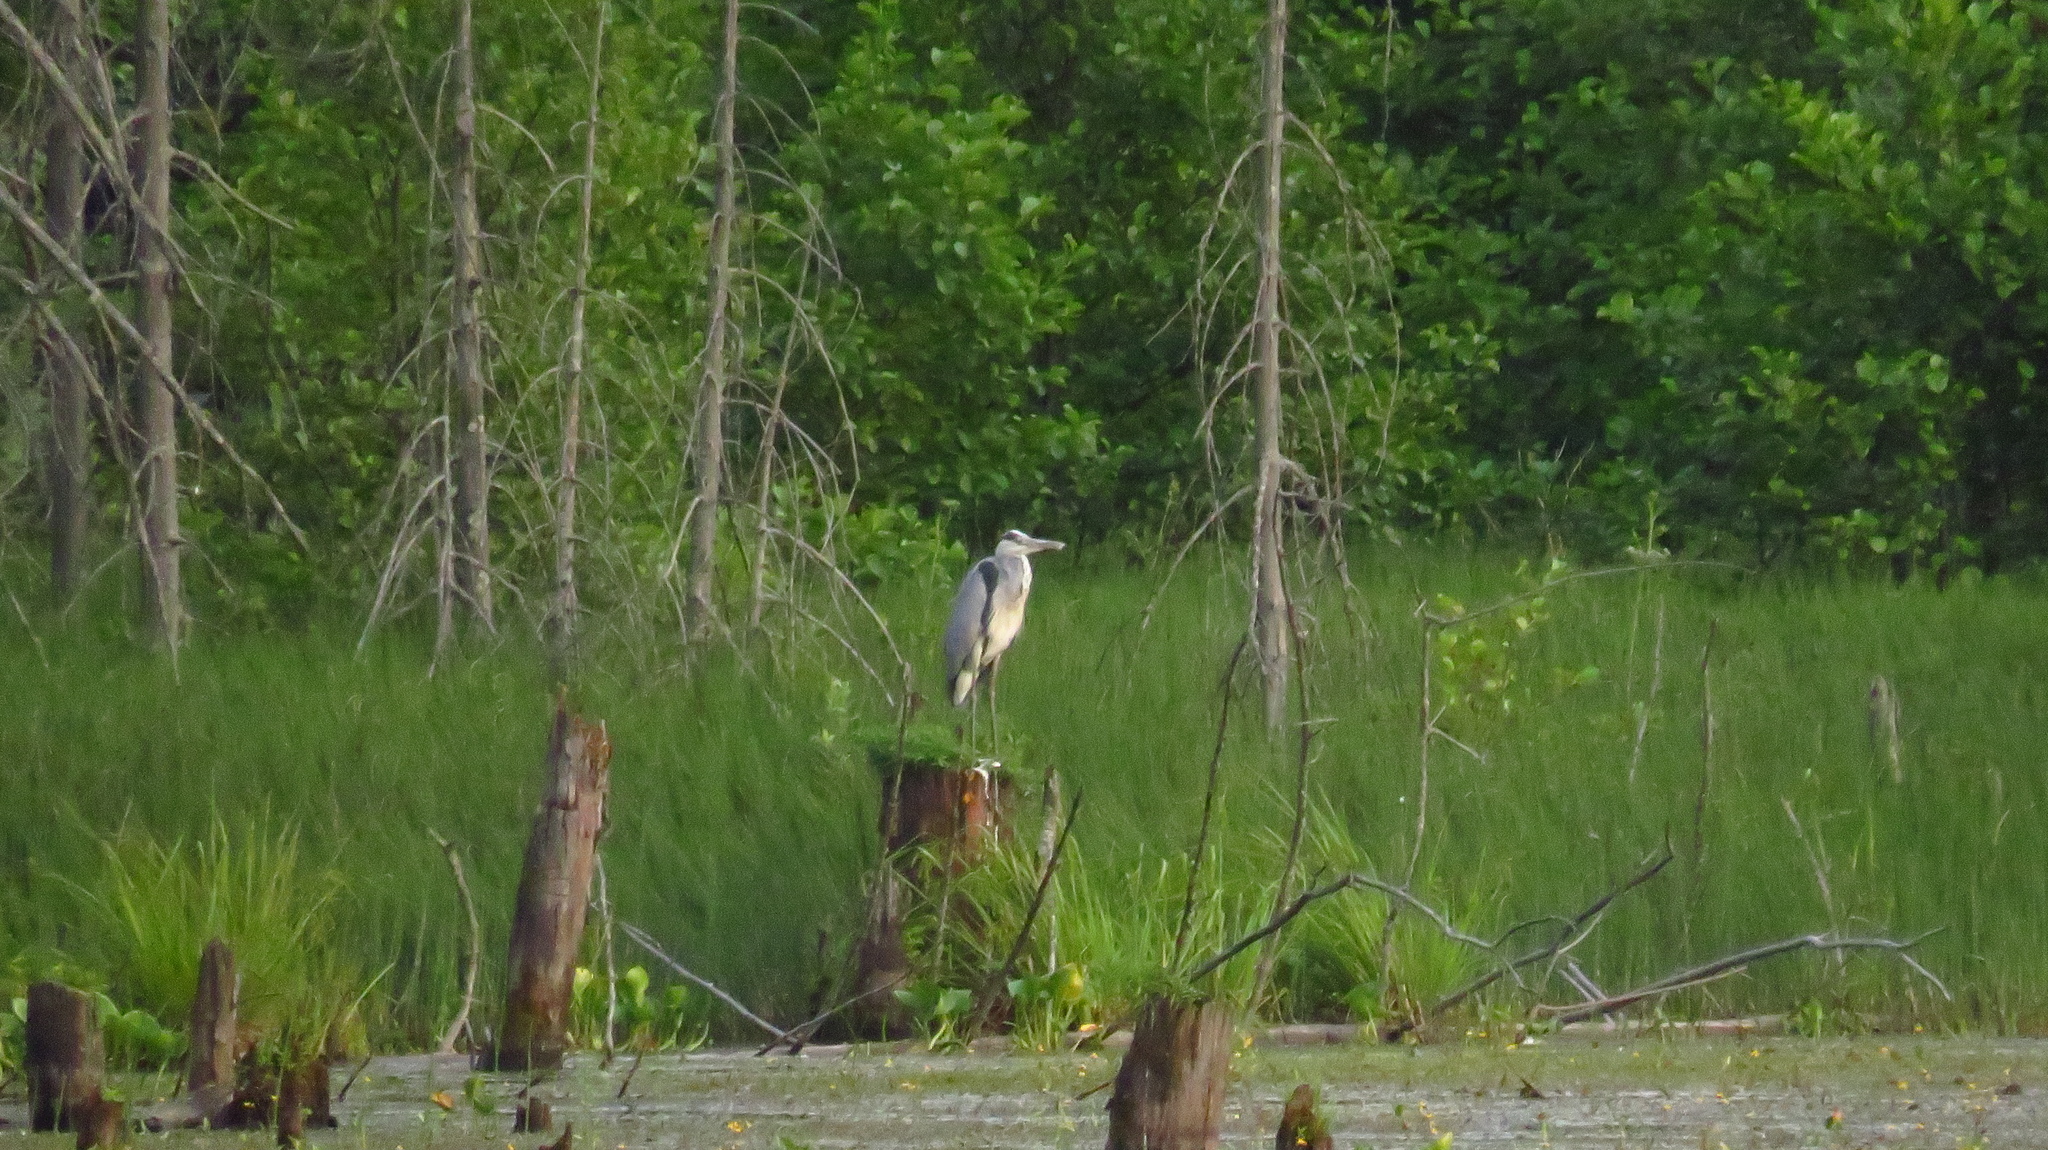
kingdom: Animalia
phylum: Chordata
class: Aves
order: Pelecaniformes
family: Ardeidae
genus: Ardea
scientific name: Ardea cinerea
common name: Grey heron
